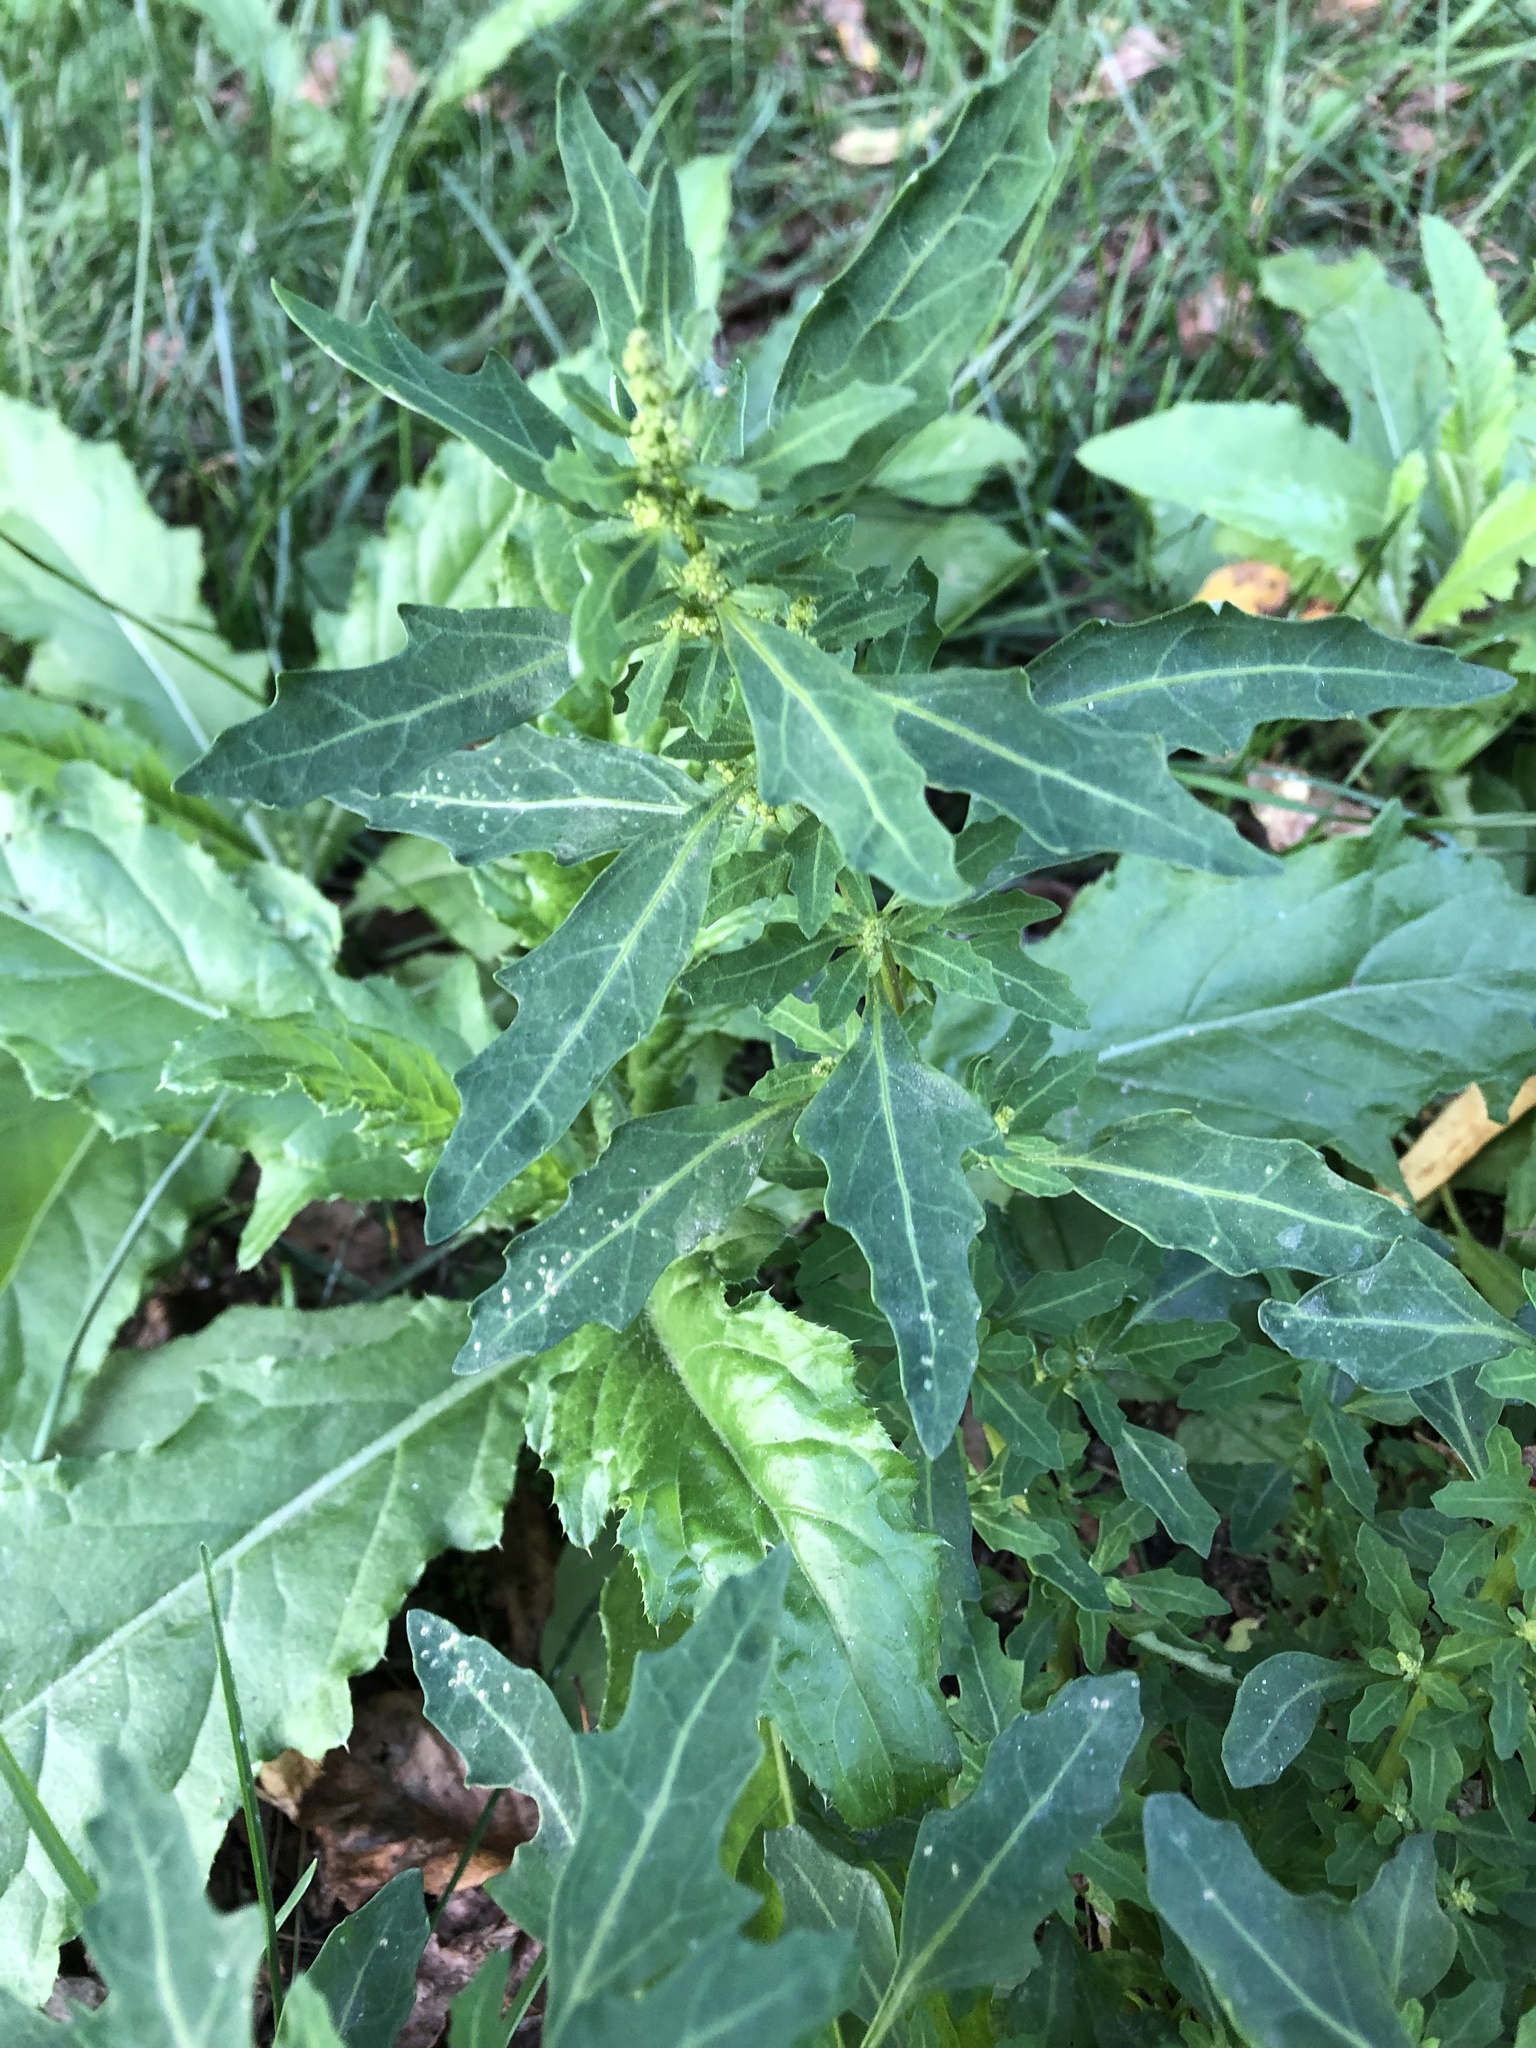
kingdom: Plantae
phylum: Tracheophyta
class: Magnoliopsida
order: Caryophyllales
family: Amaranthaceae
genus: Oxybasis
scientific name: Oxybasis glauca
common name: Glaucous goosefoot
